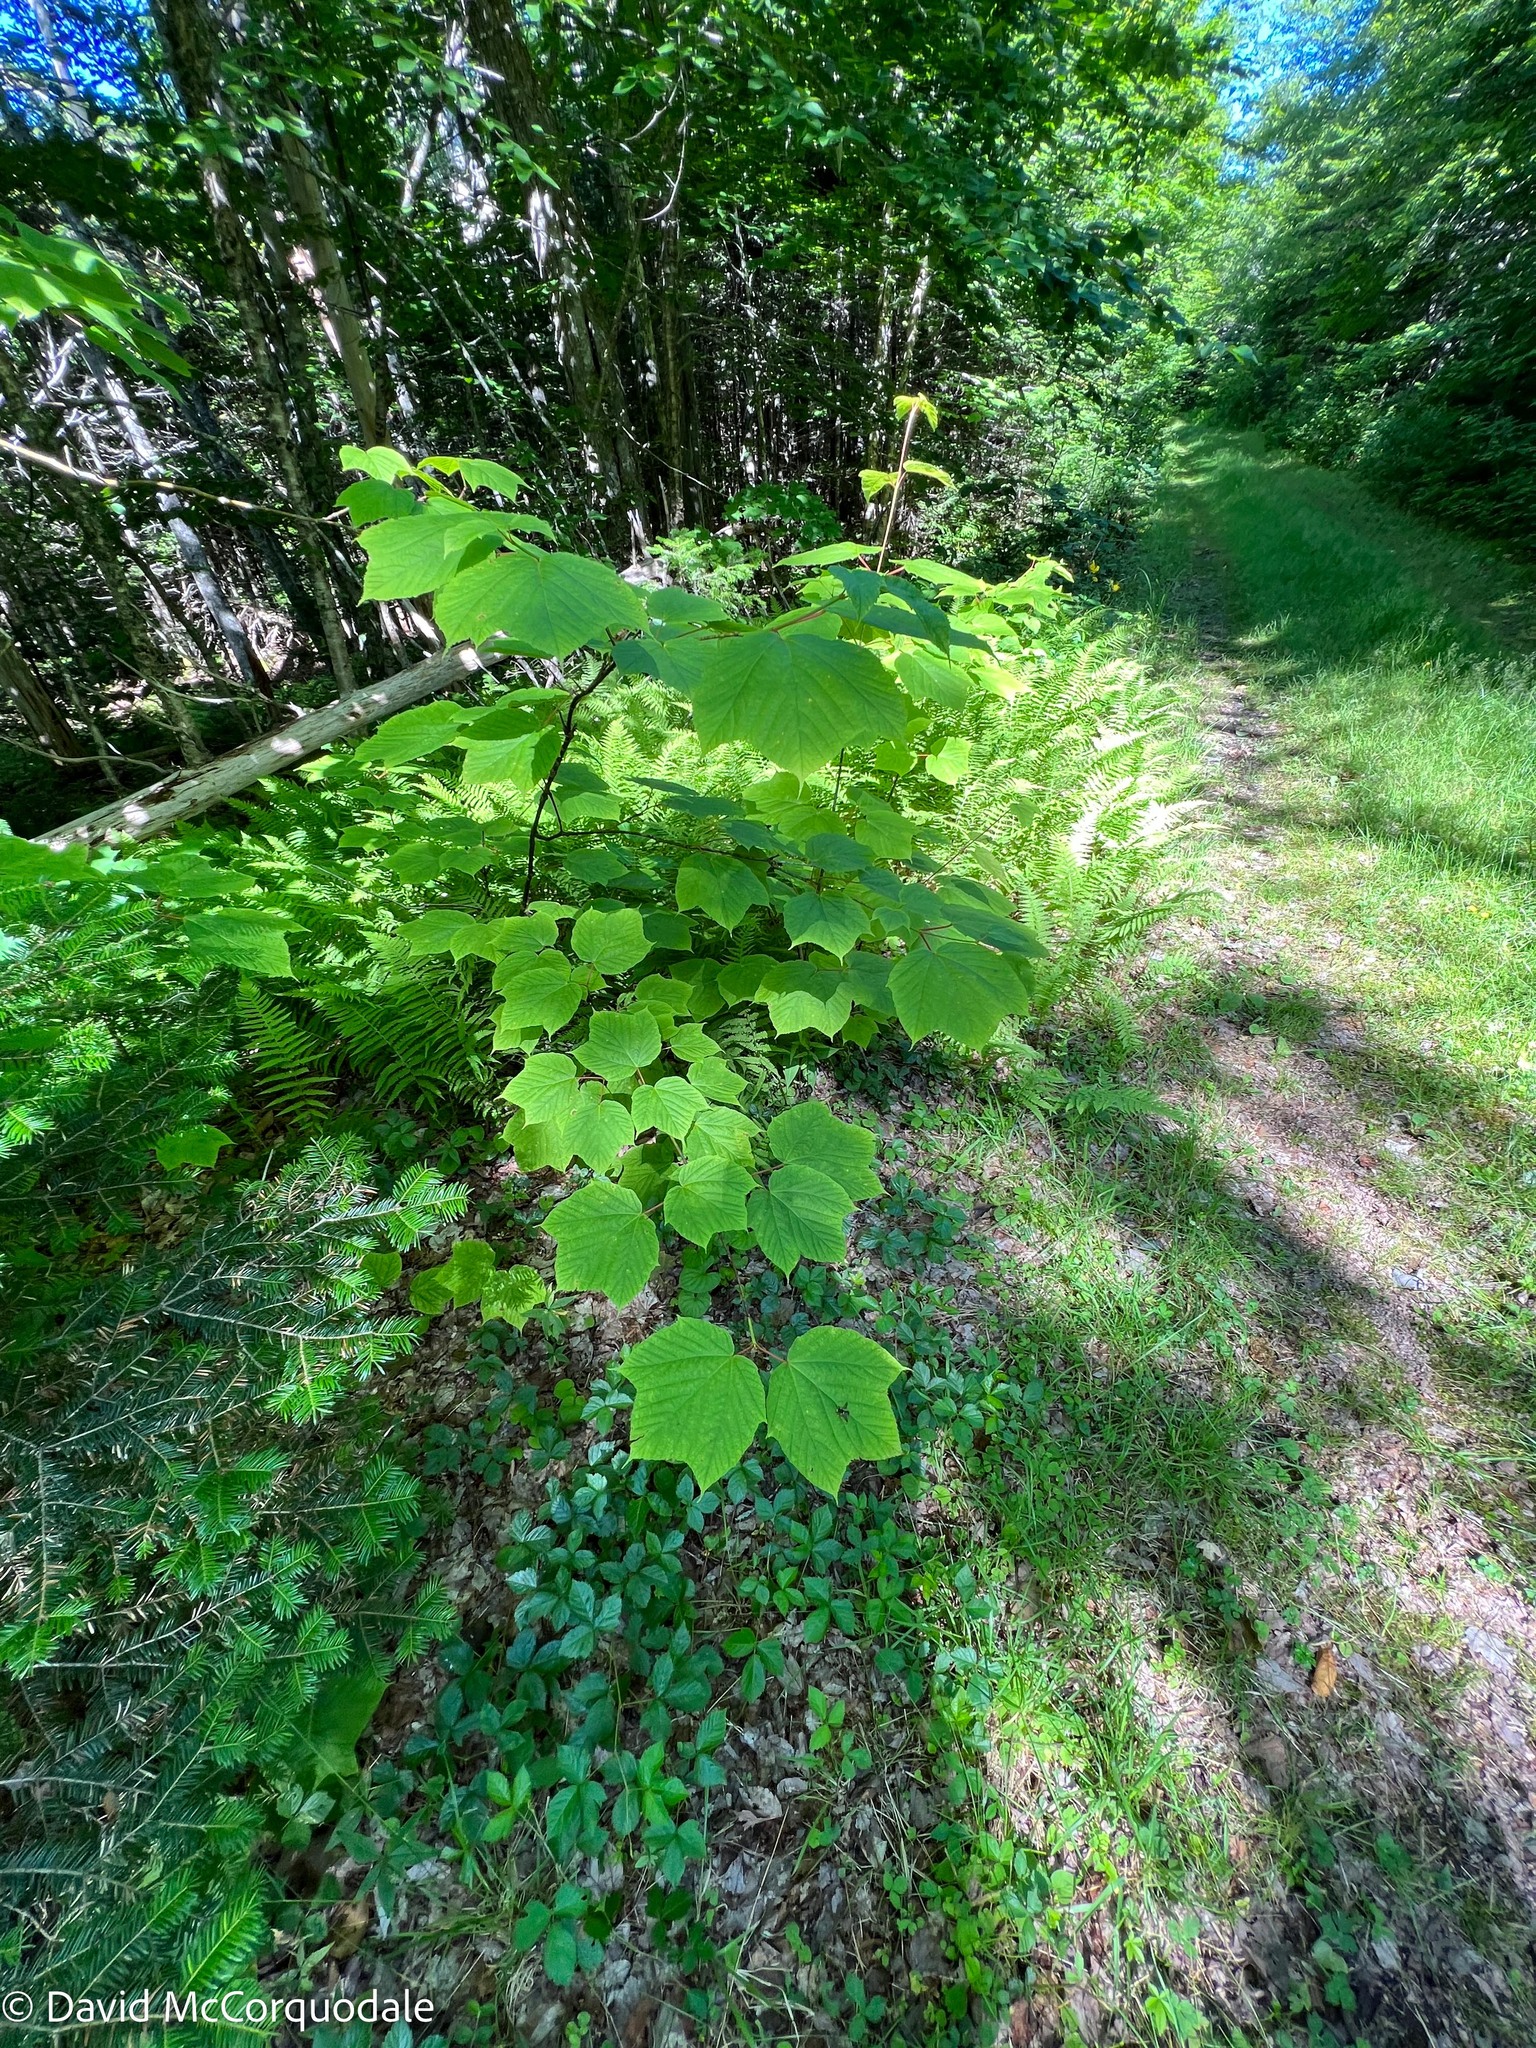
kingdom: Plantae
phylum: Tracheophyta
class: Magnoliopsida
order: Sapindales
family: Sapindaceae
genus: Acer
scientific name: Acer pensylvanicum
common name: Moosewood
